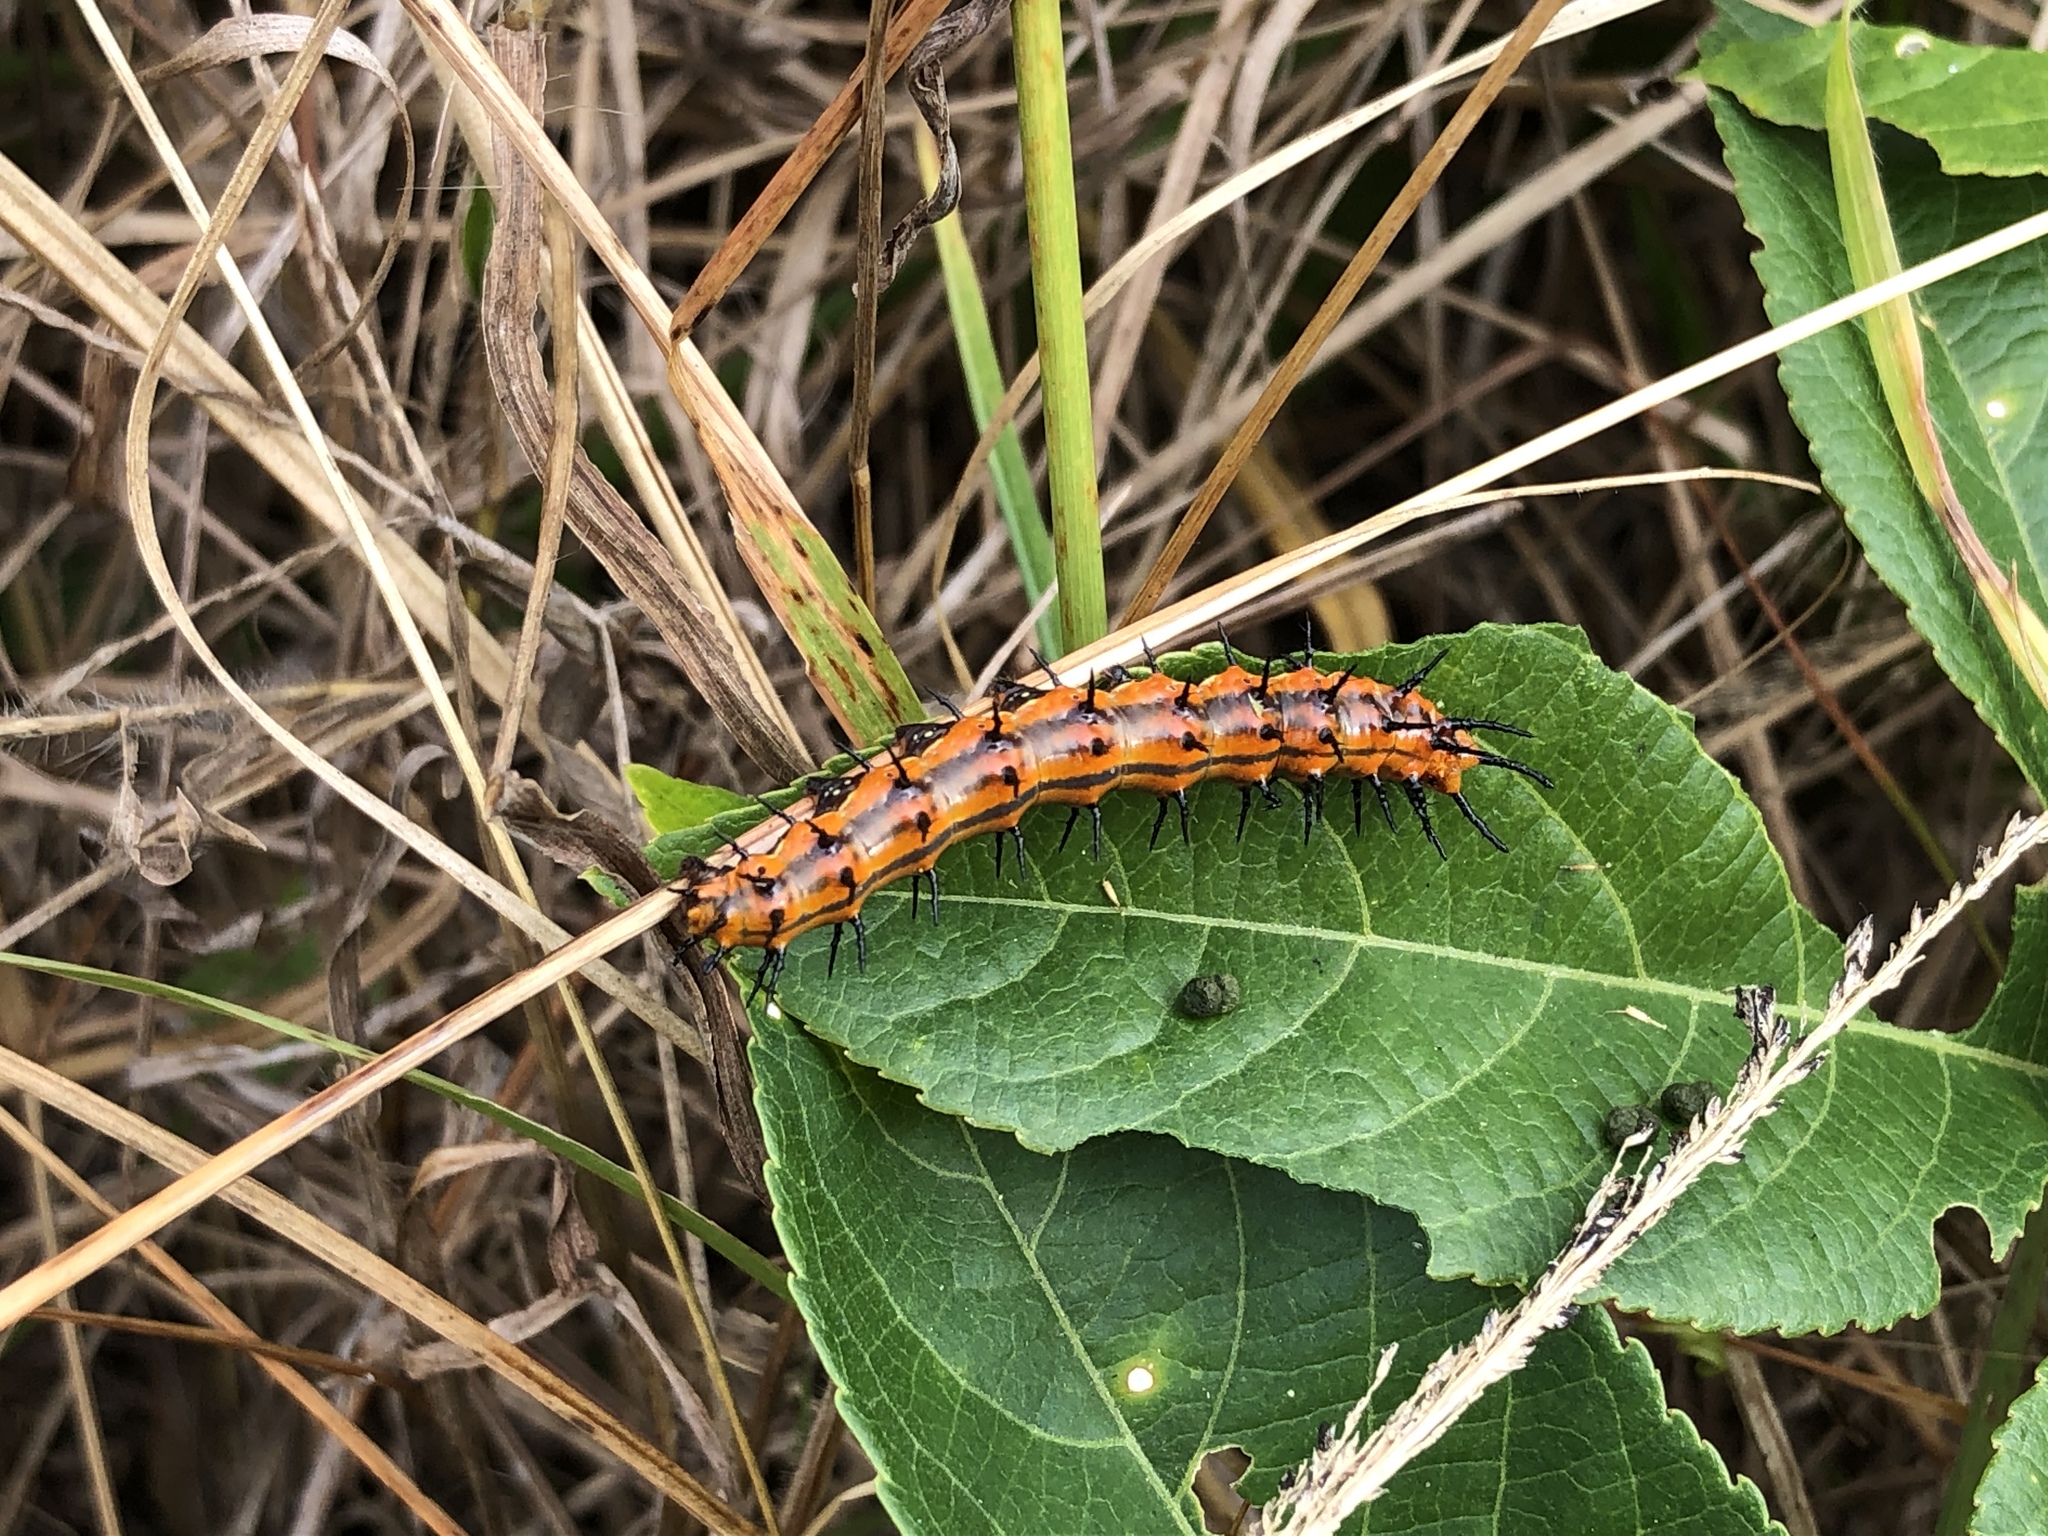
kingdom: Animalia
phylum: Arthropoda
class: Insecta
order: Lepidoptera
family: Nymphalidae
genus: Dione
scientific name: Dione vanillae
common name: Gulf fritillary
